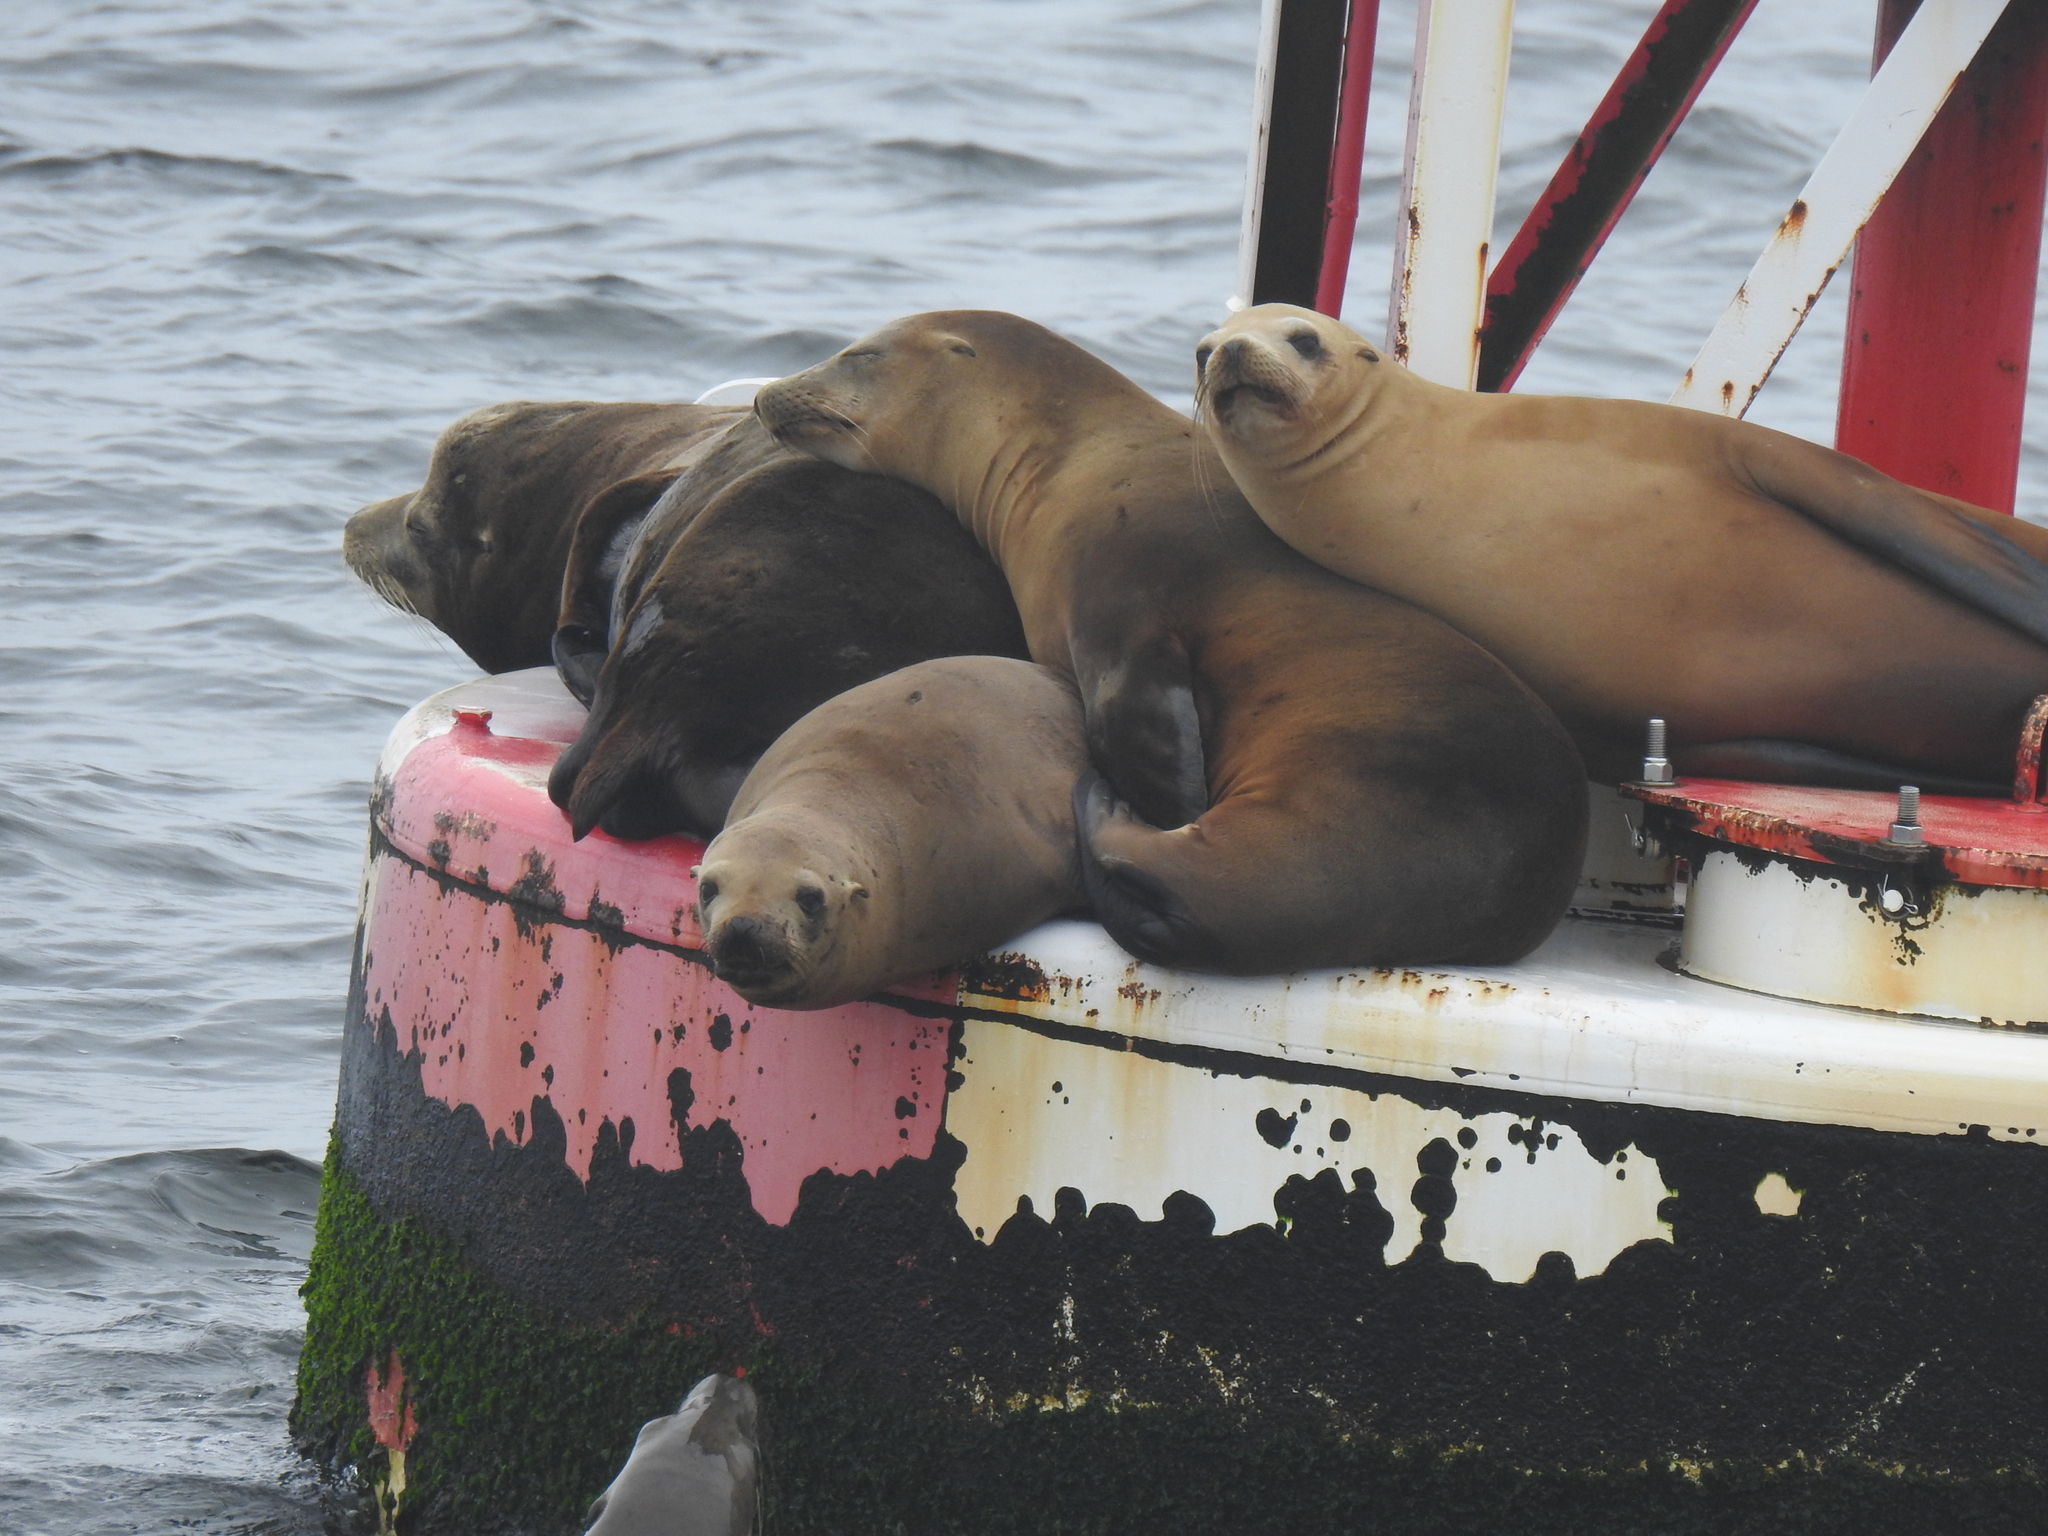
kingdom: Animalia
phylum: Chordata
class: Mammalia
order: Carnivora
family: Otariidae
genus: Zalophus
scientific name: Zalophus californianus
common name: California sea lion
